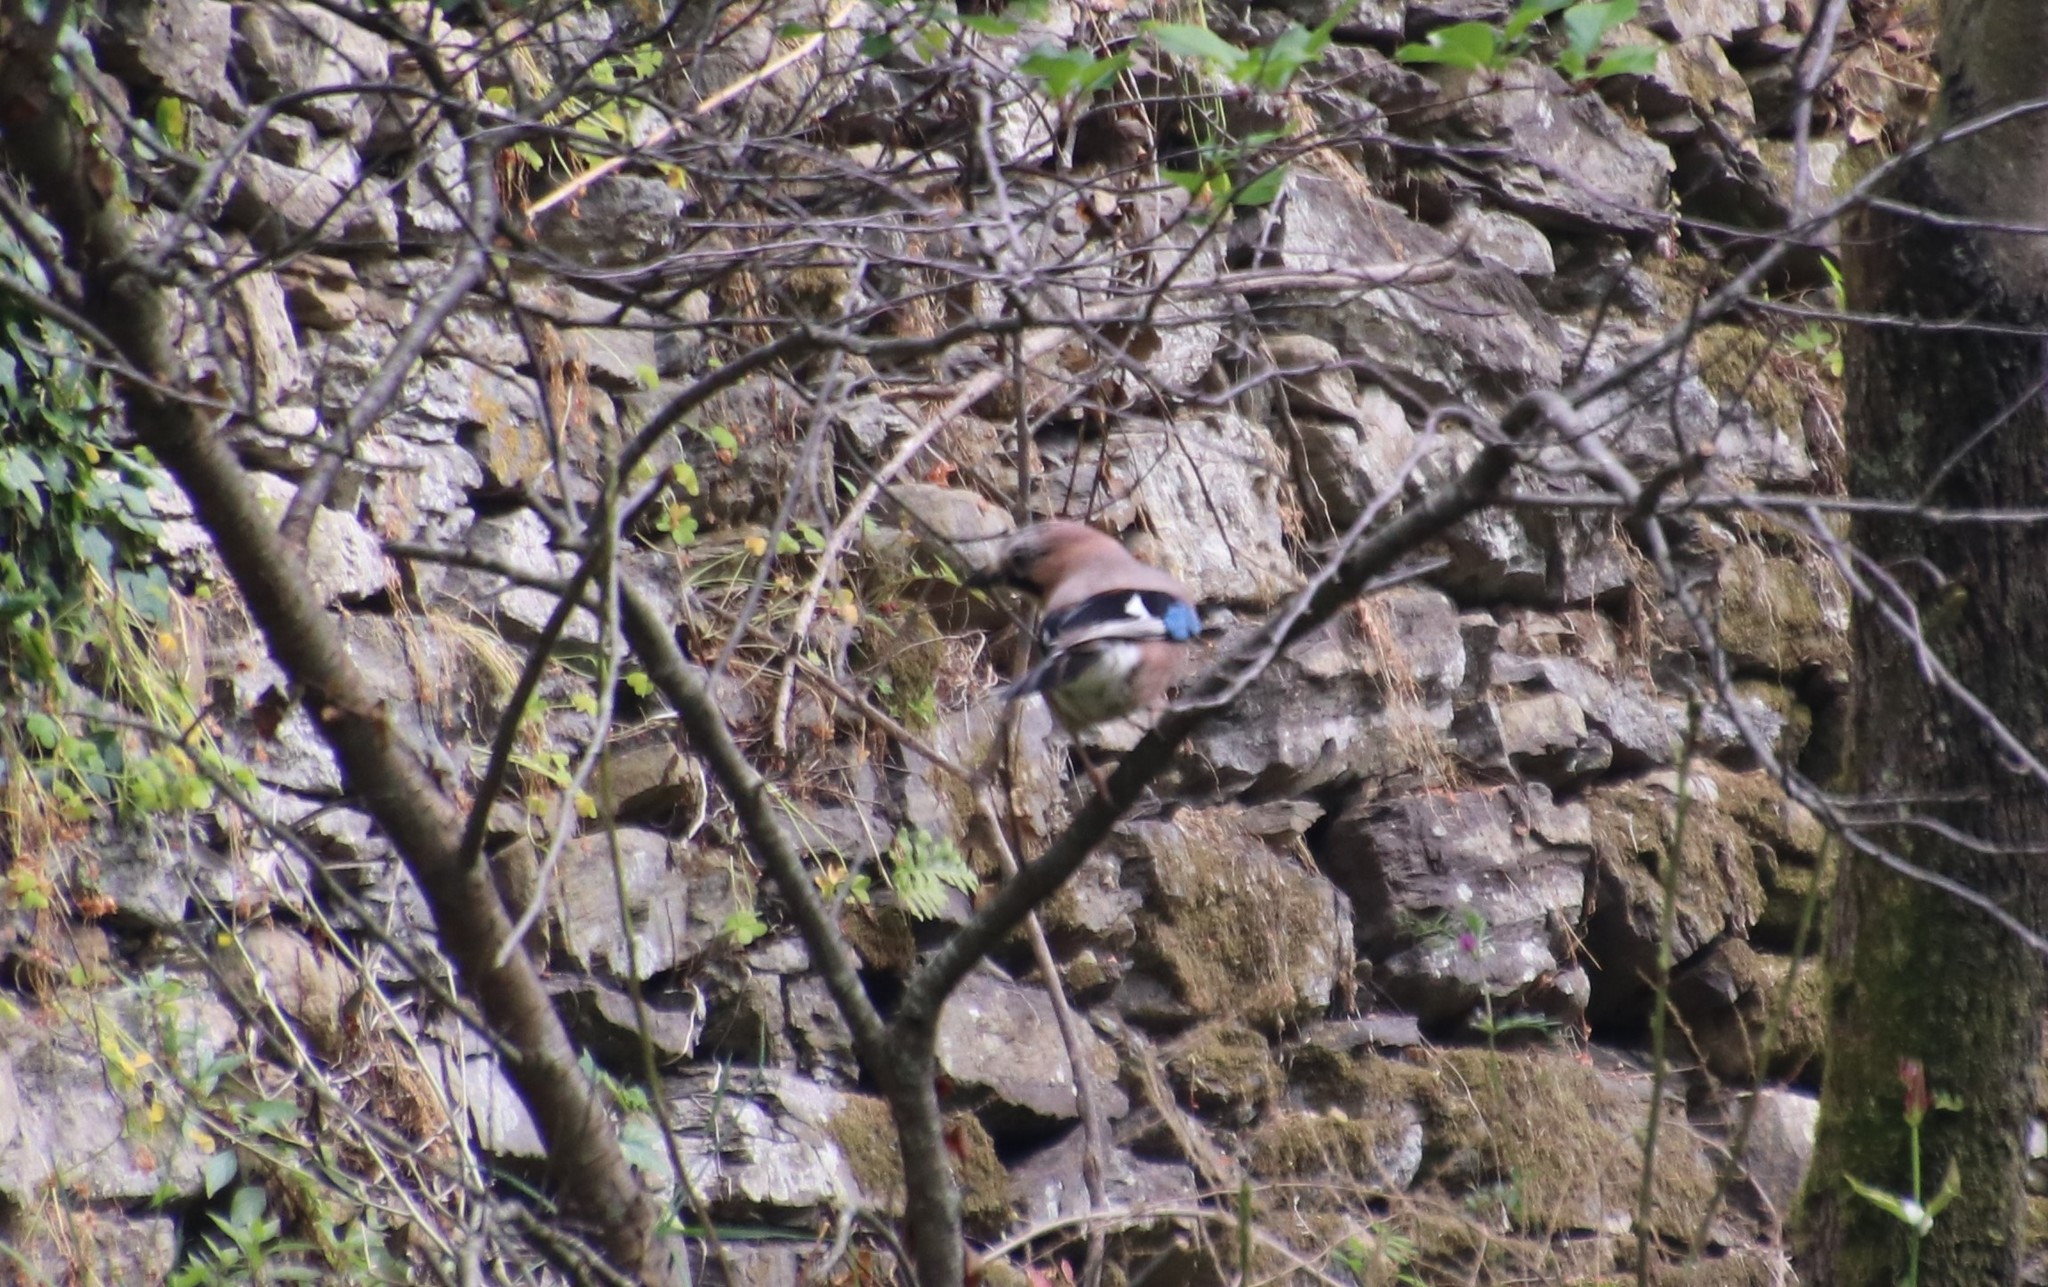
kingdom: Animalia
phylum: Chordata
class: Aves
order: Passeriformes
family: Corvidae
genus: Garrulus
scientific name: Garrulus glandarius
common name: Eurasian jay
